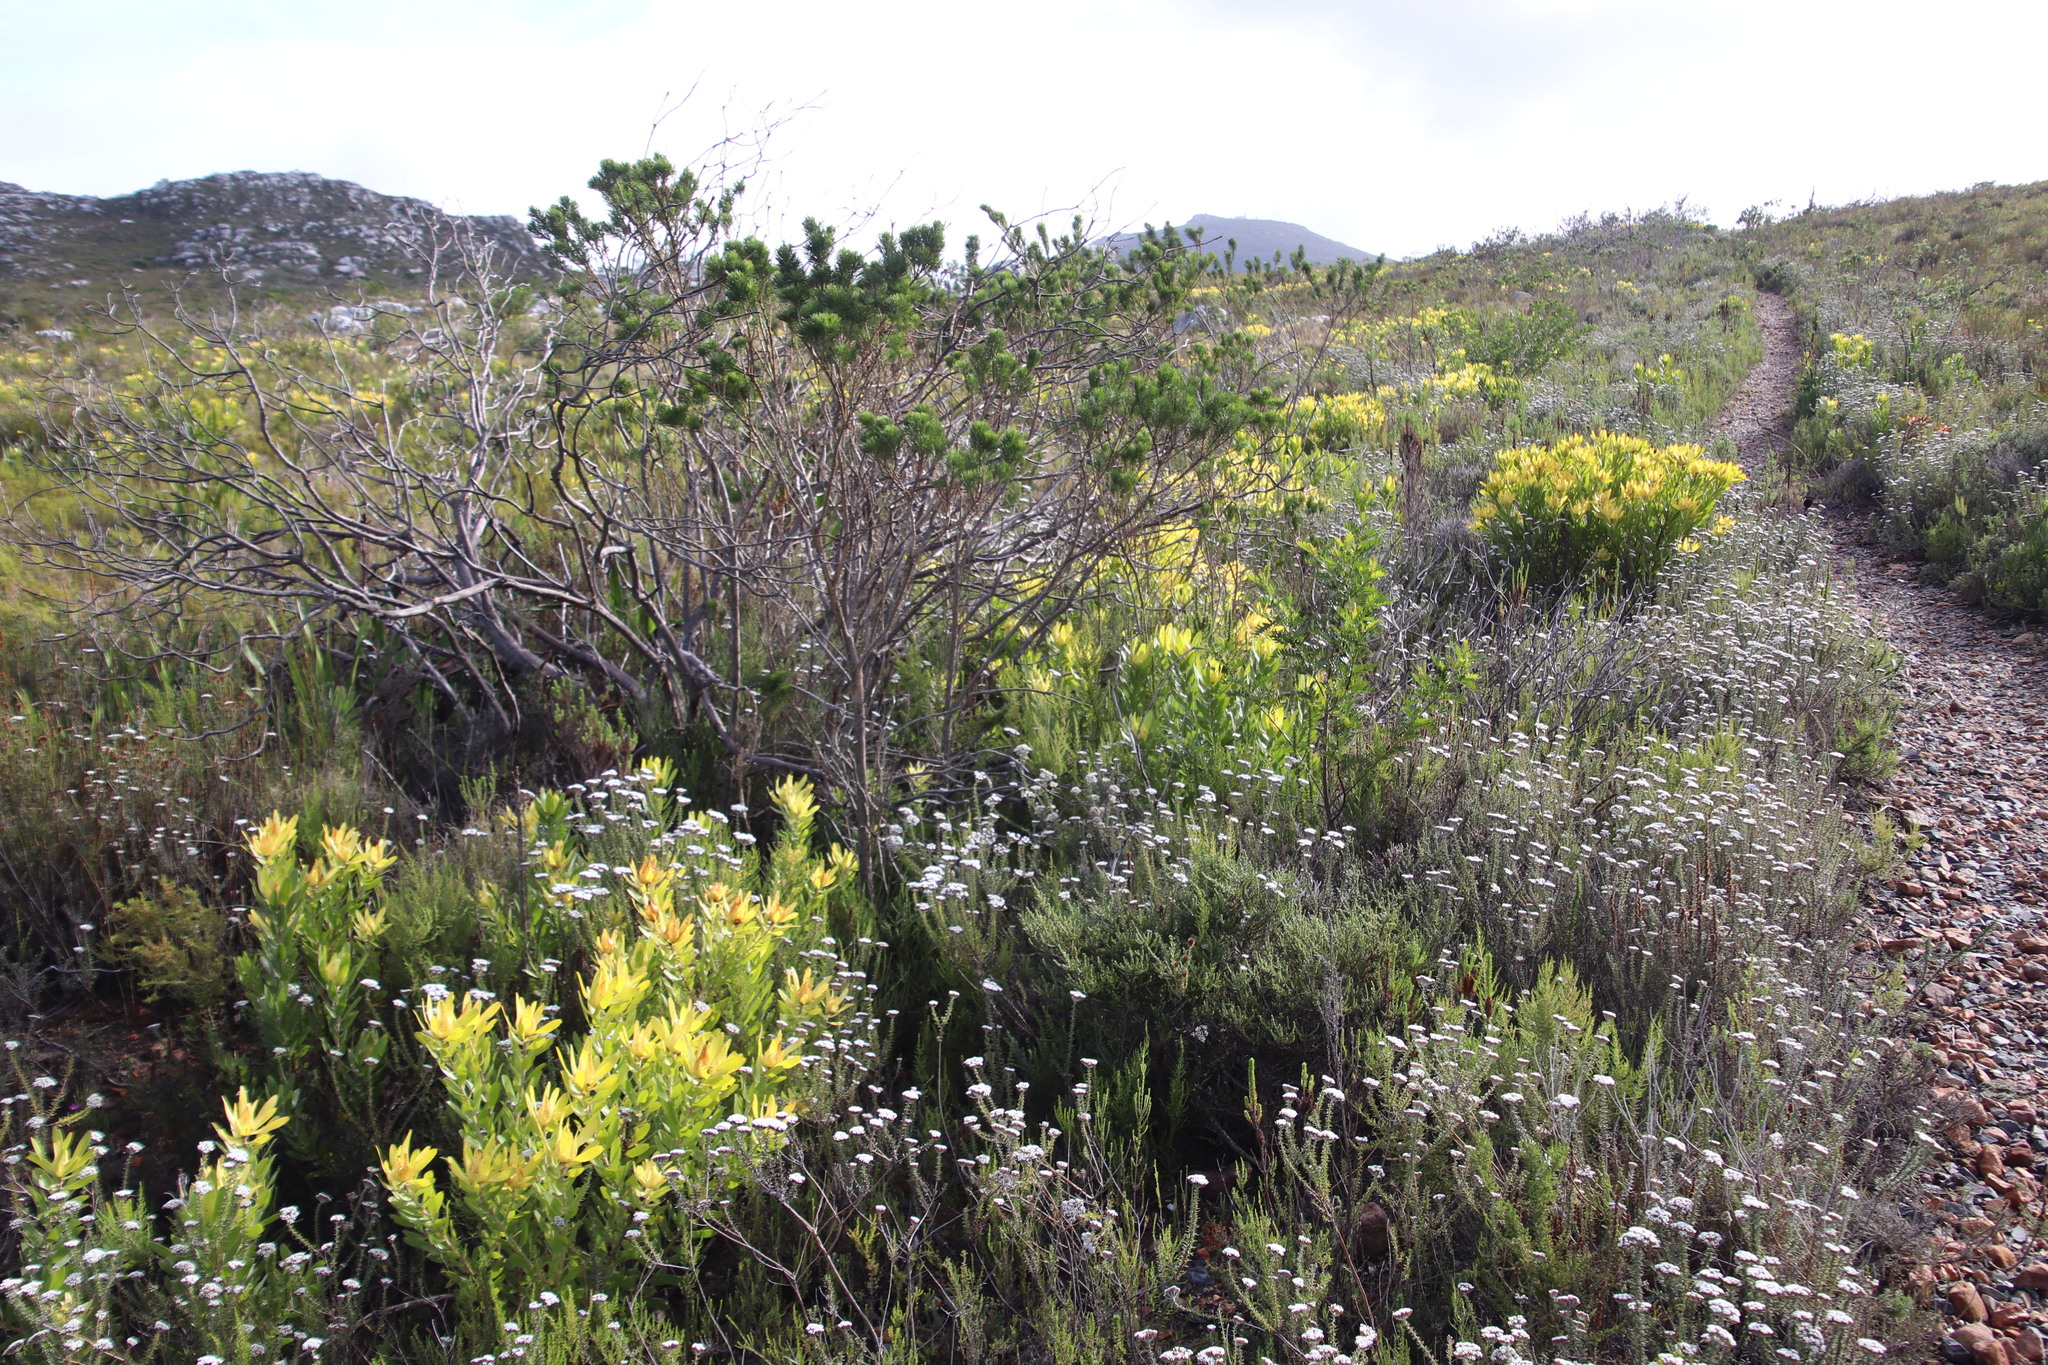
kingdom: Plantae
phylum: Tracheophyta
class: Magnoliopsida
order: Fabales
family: Fabaceae
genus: Psoralea
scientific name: Psoralea pinnata
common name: African scurfpea
